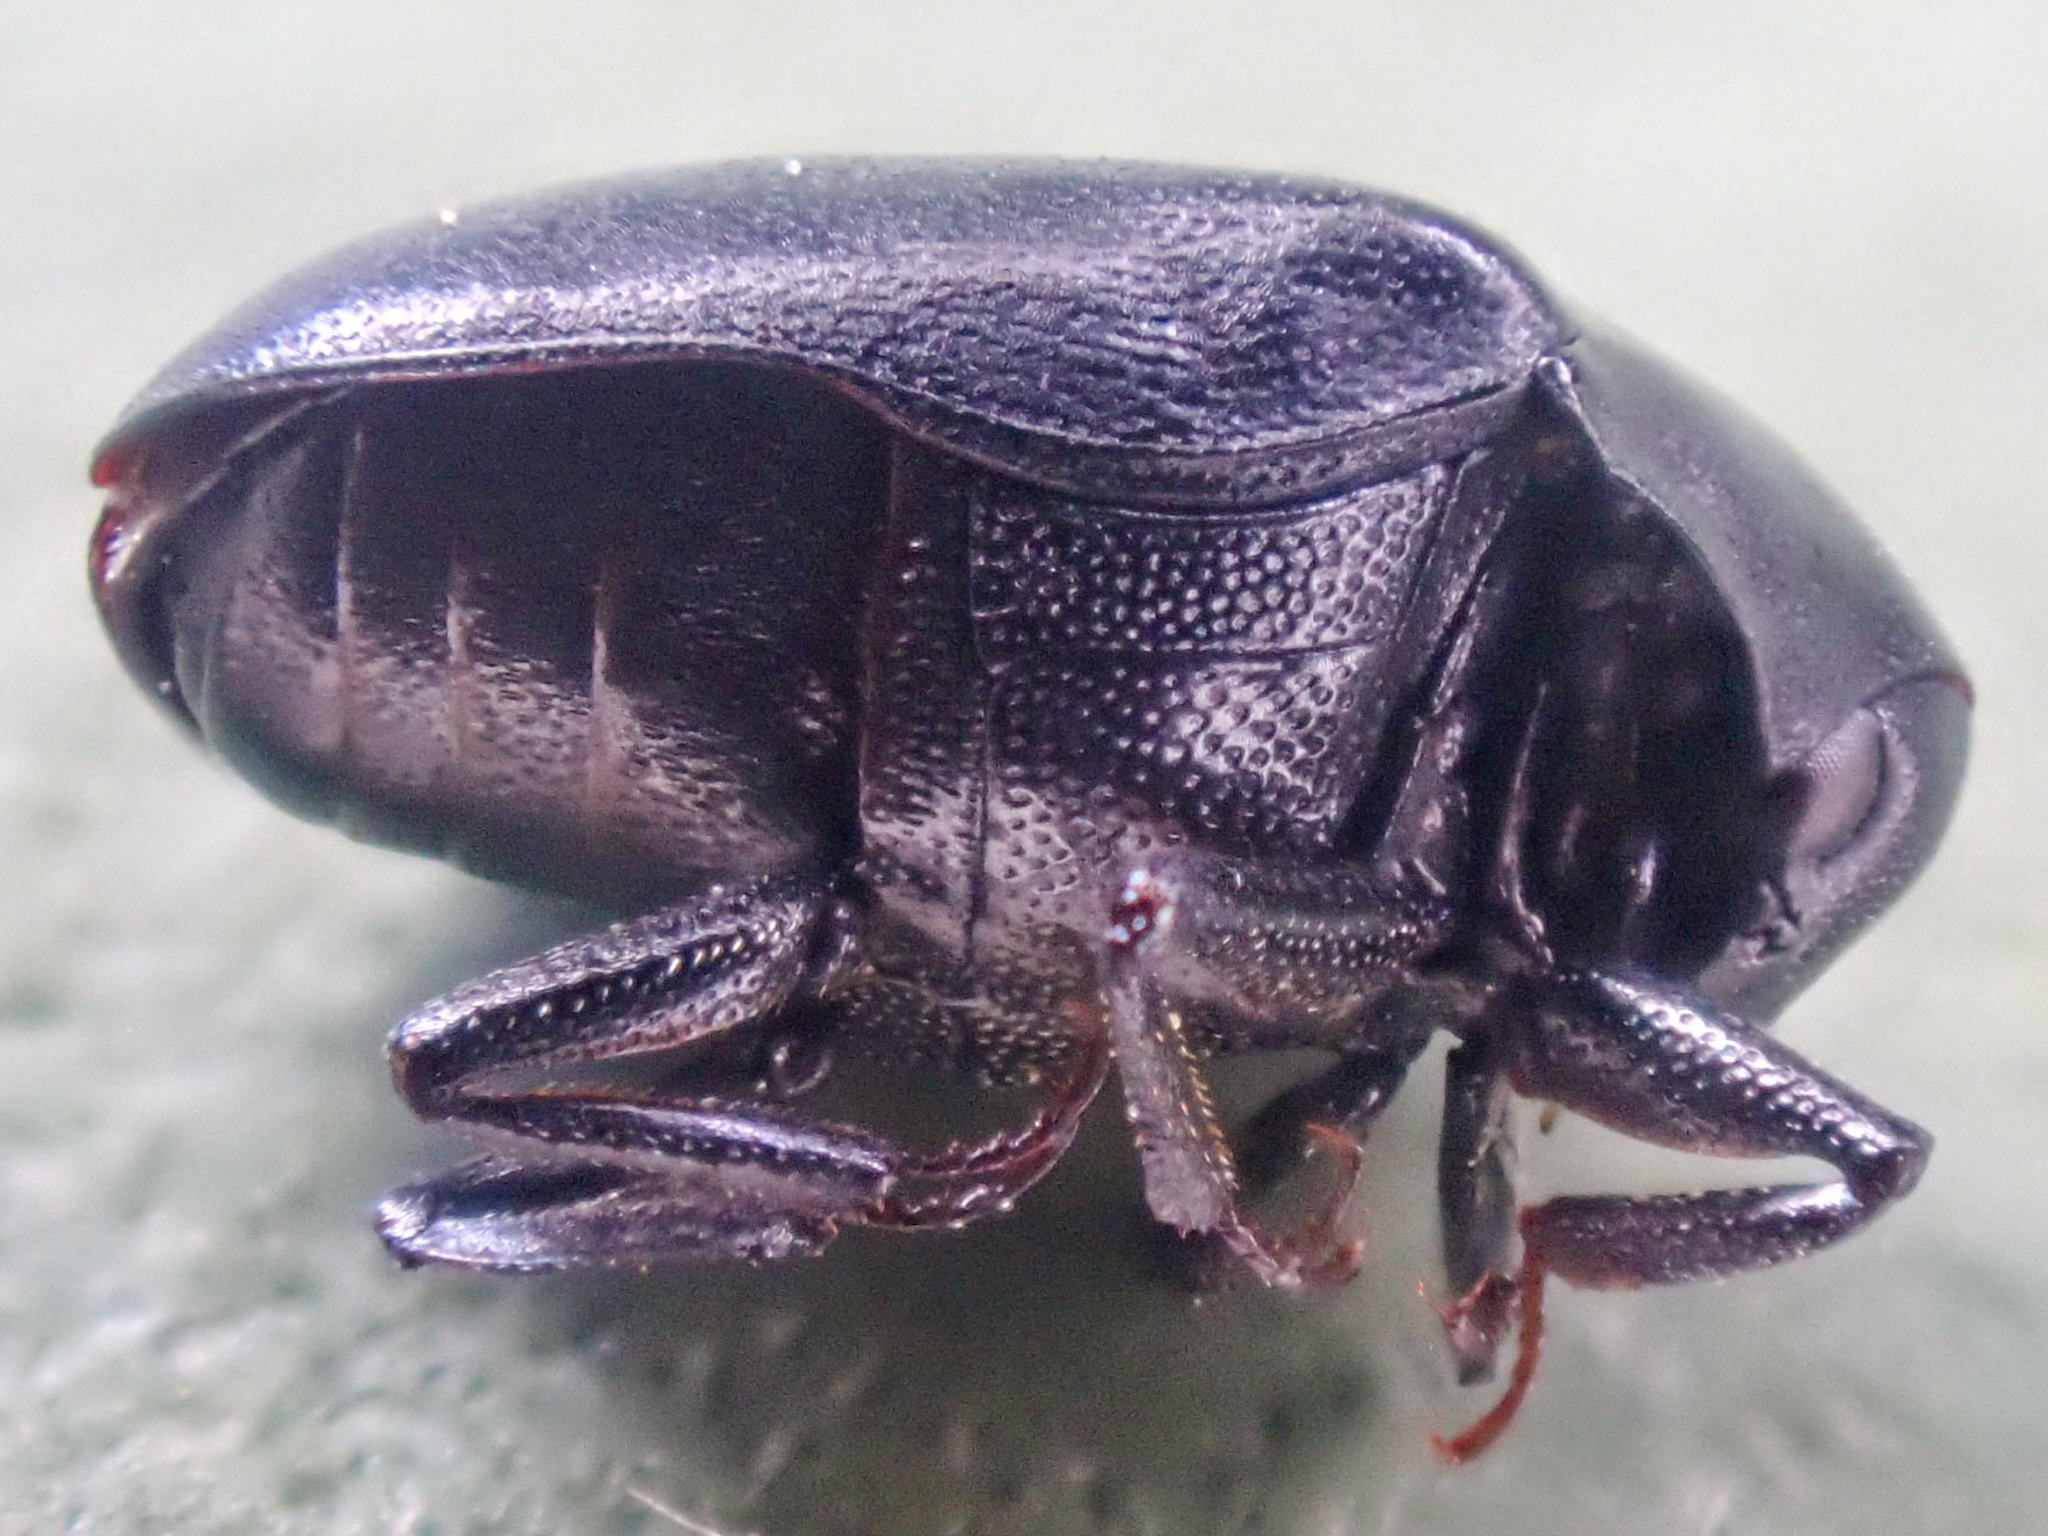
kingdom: Animalia
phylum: Arthropoda
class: Insecta
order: Coleoptera
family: Dermestidae
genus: Orphilus
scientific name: Orphilus subnitidus
